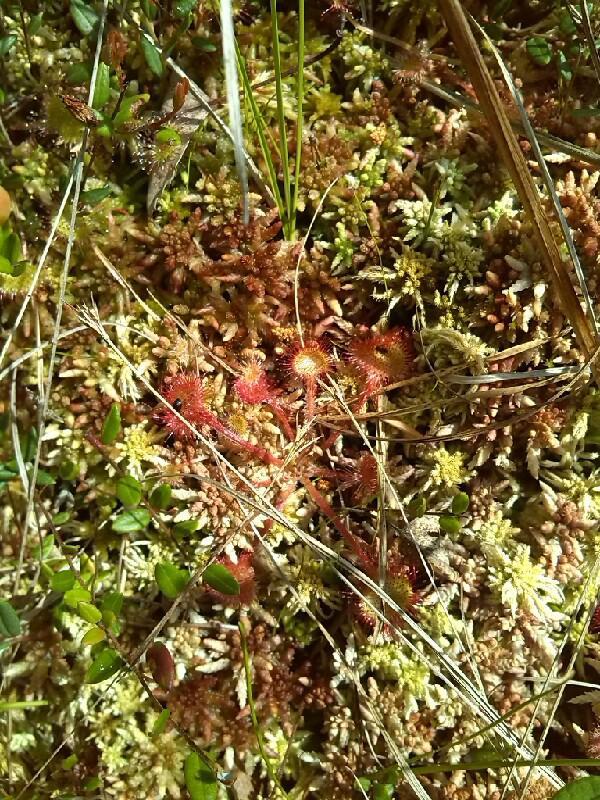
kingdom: Plantae
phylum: Tracheophyta
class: Magnoliopsida
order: Caryophyllales
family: Droseraceae
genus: Drosera
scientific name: Drosera rotundifolia
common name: Round-leaved sundew
